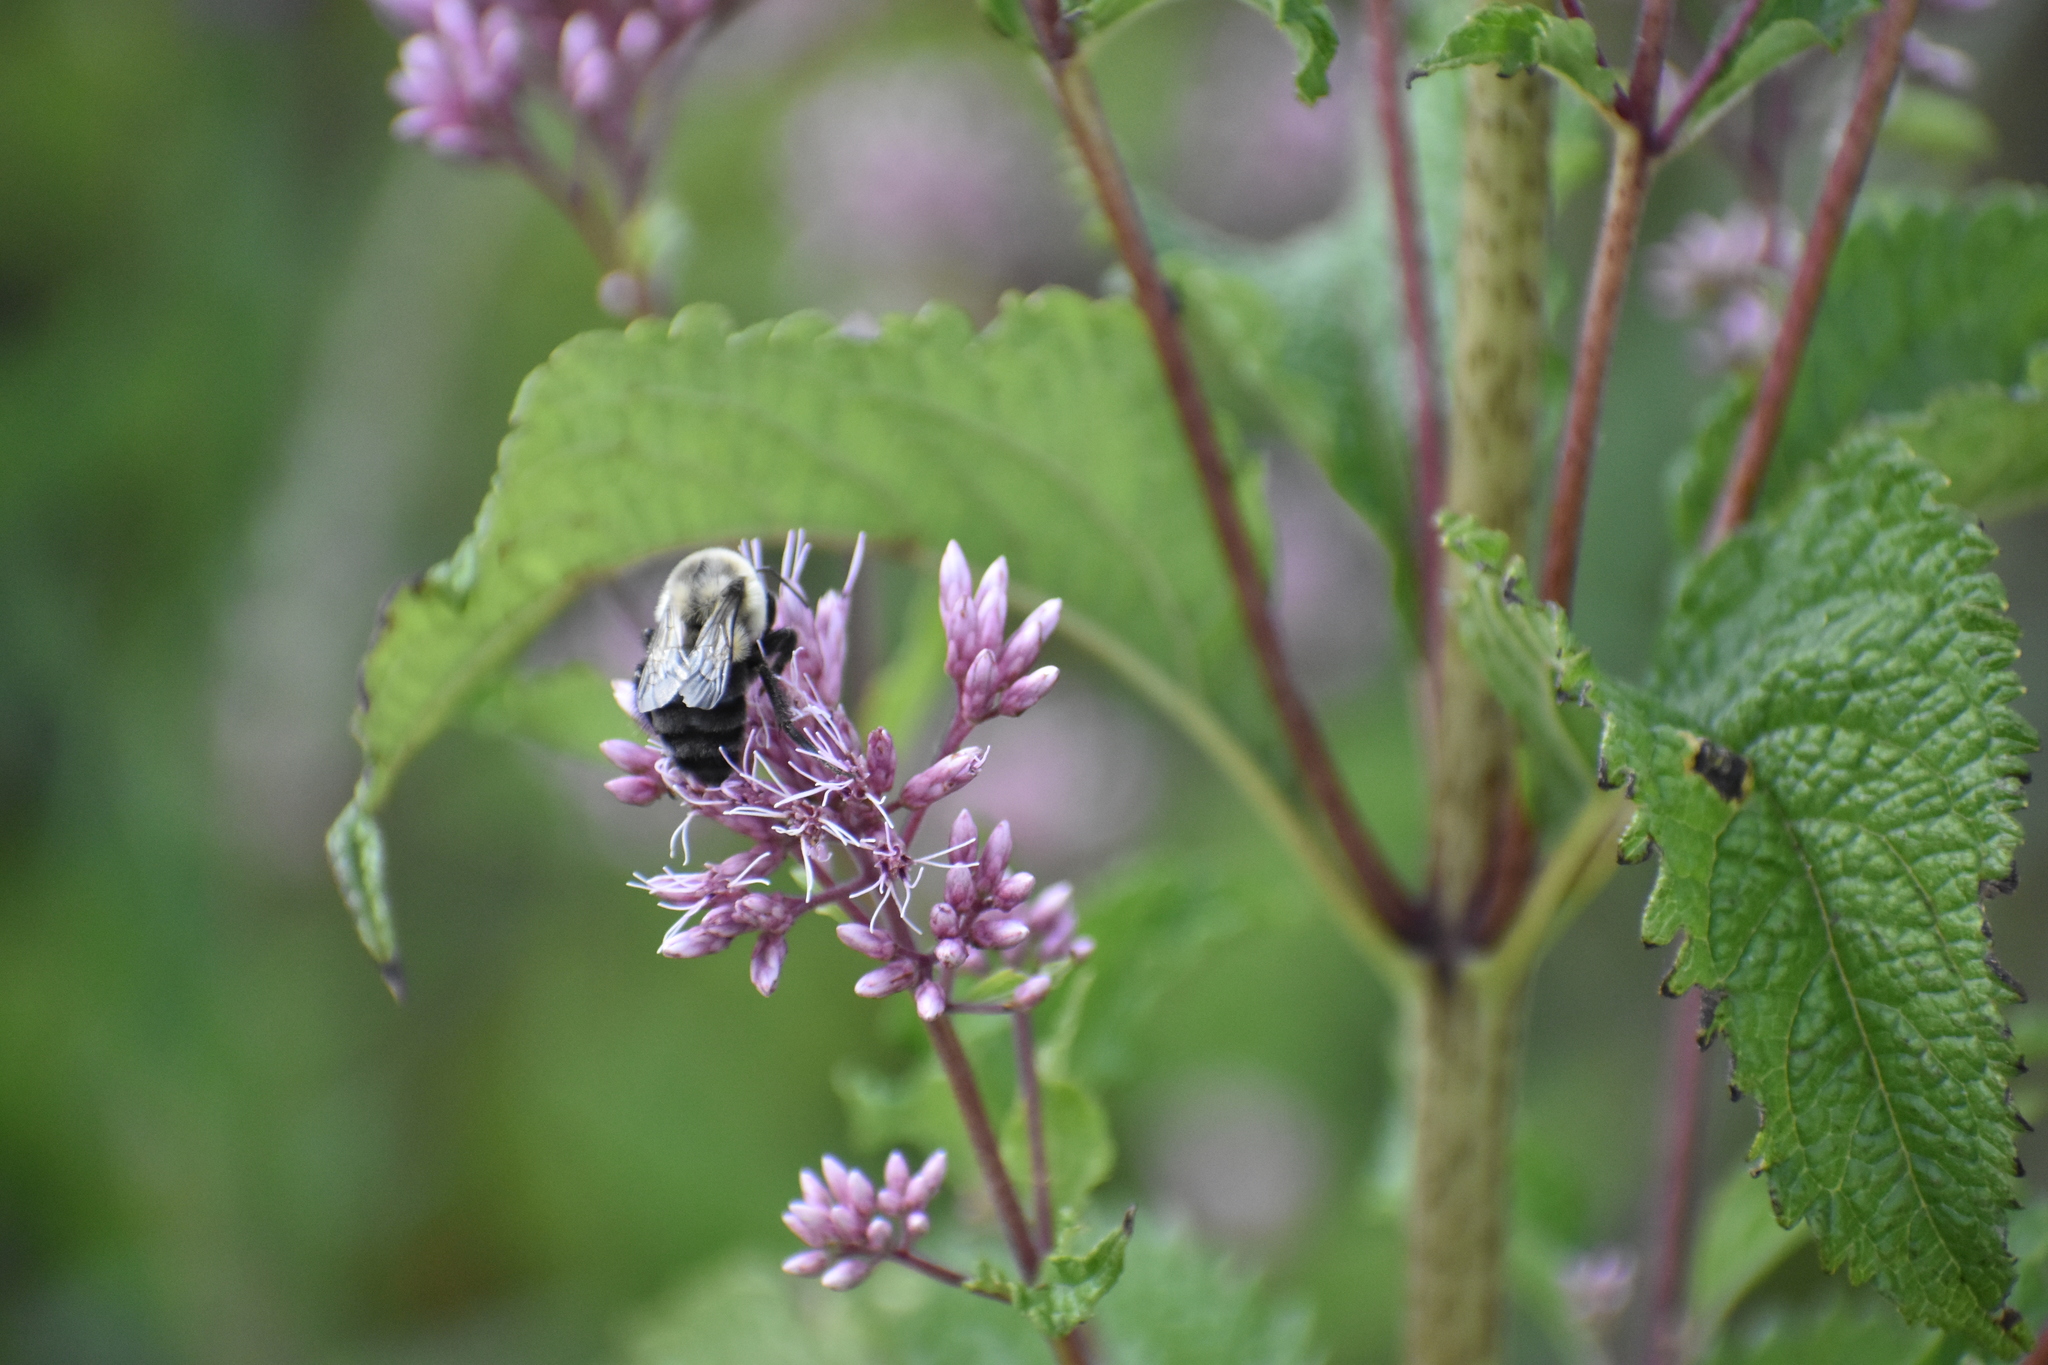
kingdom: Animalia
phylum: Arthropoda
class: Insecta
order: Hymenoptera
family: Apidae
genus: Bombus
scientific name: Bombus impatiens
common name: Common eastern bumble bee
